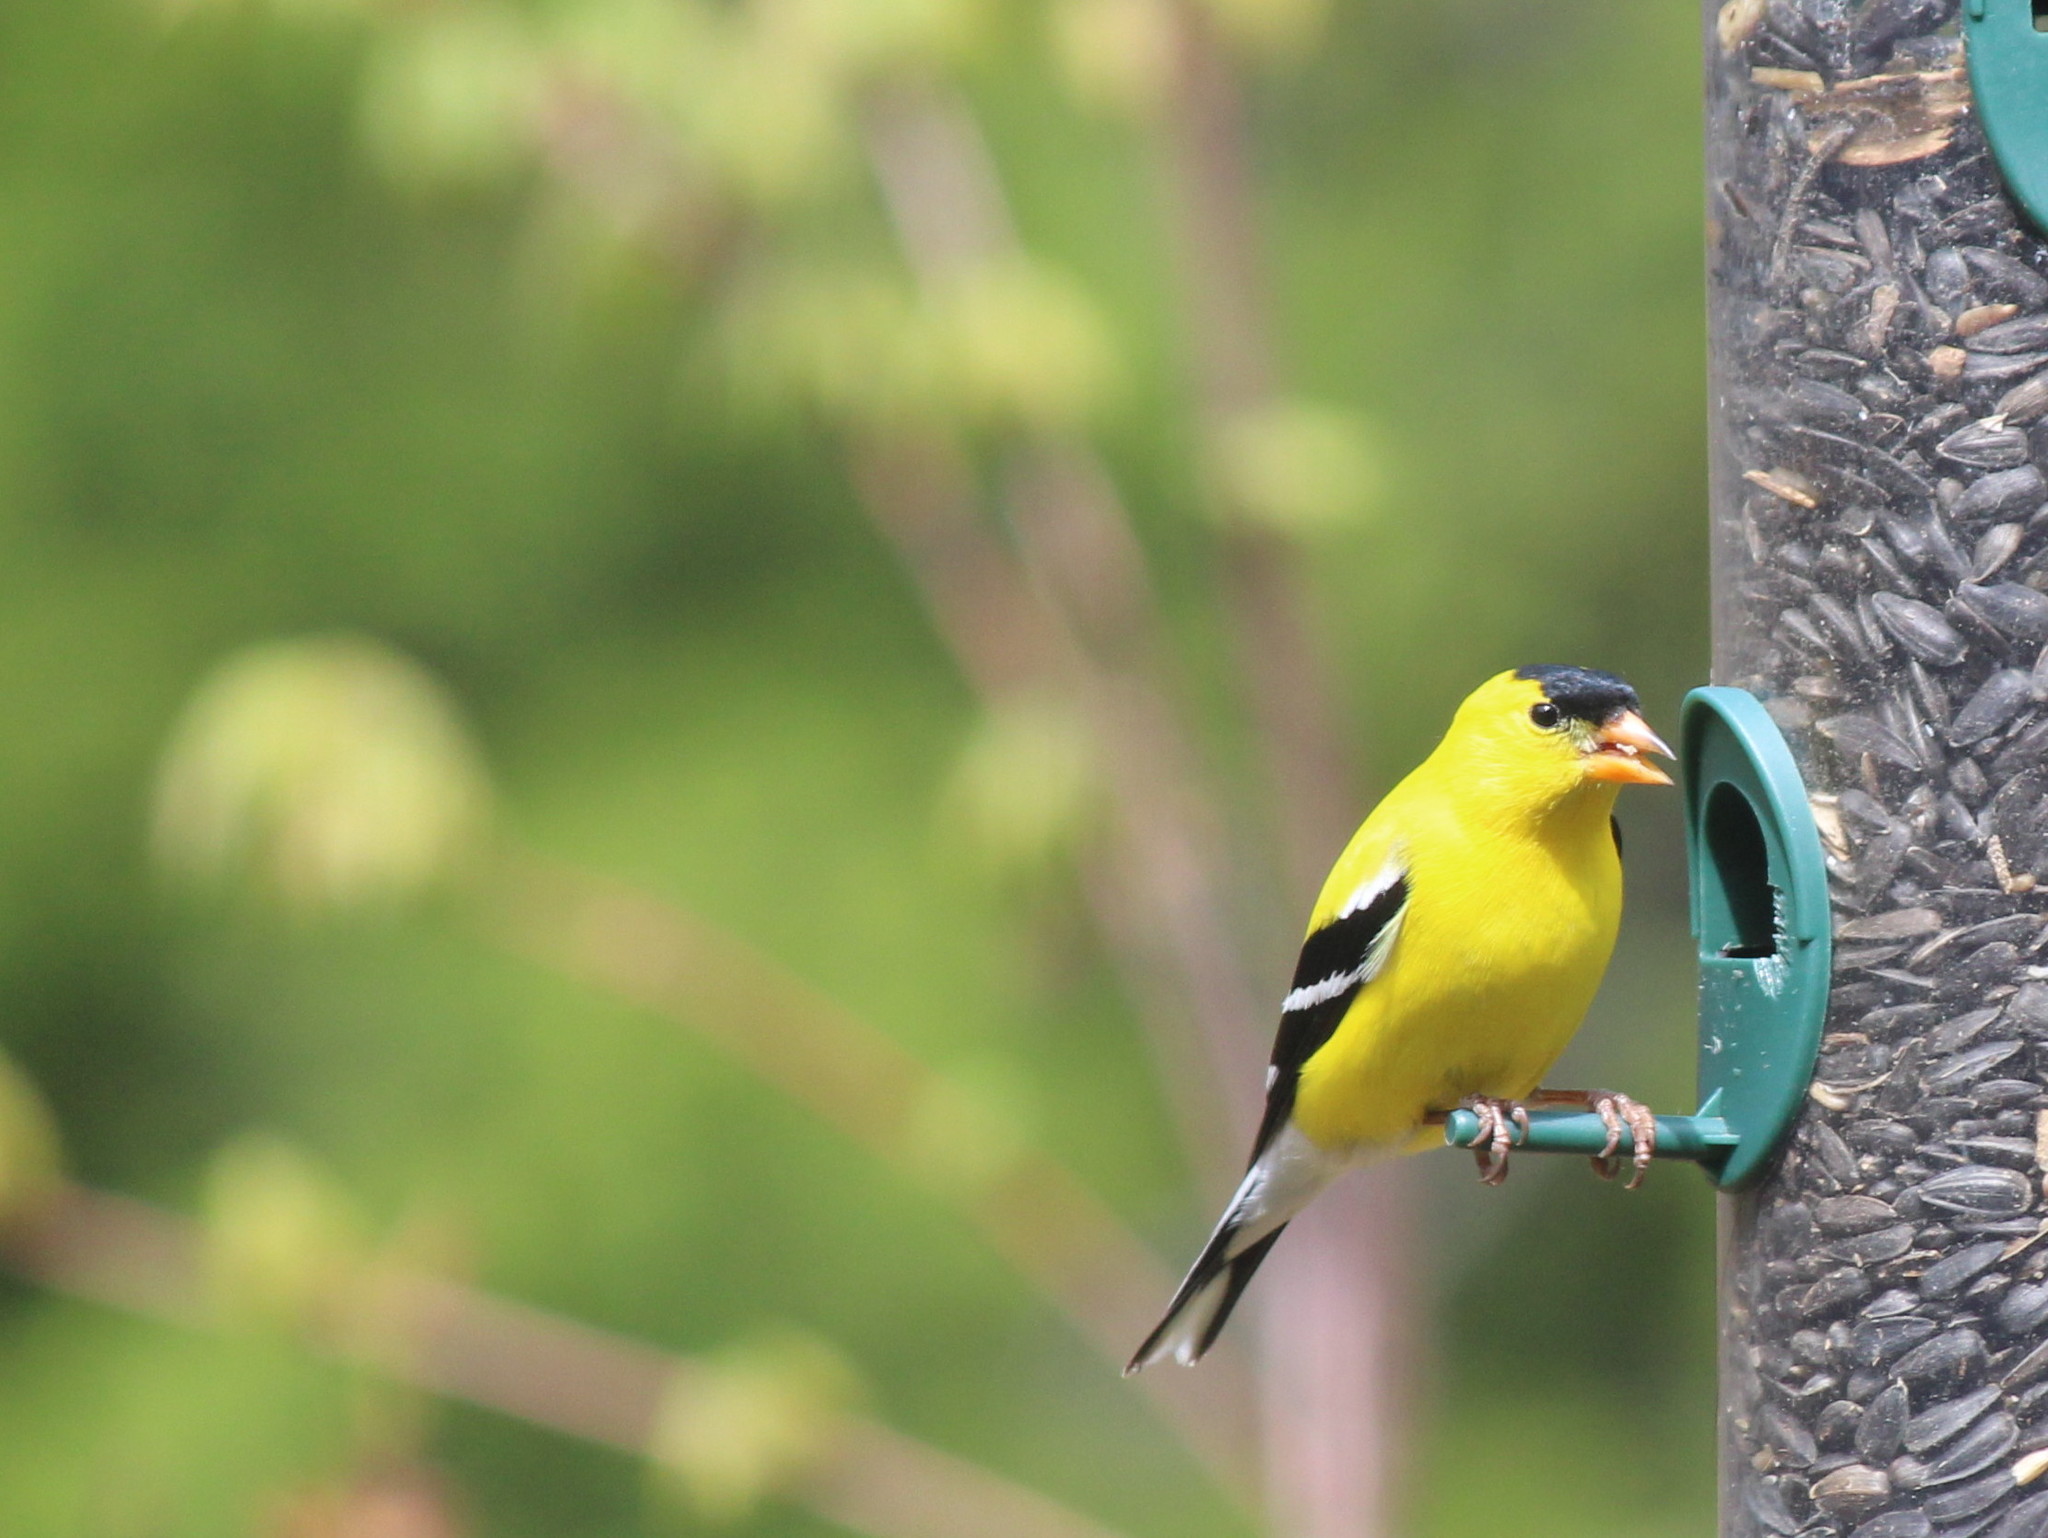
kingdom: Animalia
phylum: Chordata
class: Aves
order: Passeriformes
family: Fringillidae
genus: Spinus
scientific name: Spinus tristis
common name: American goldfinch
